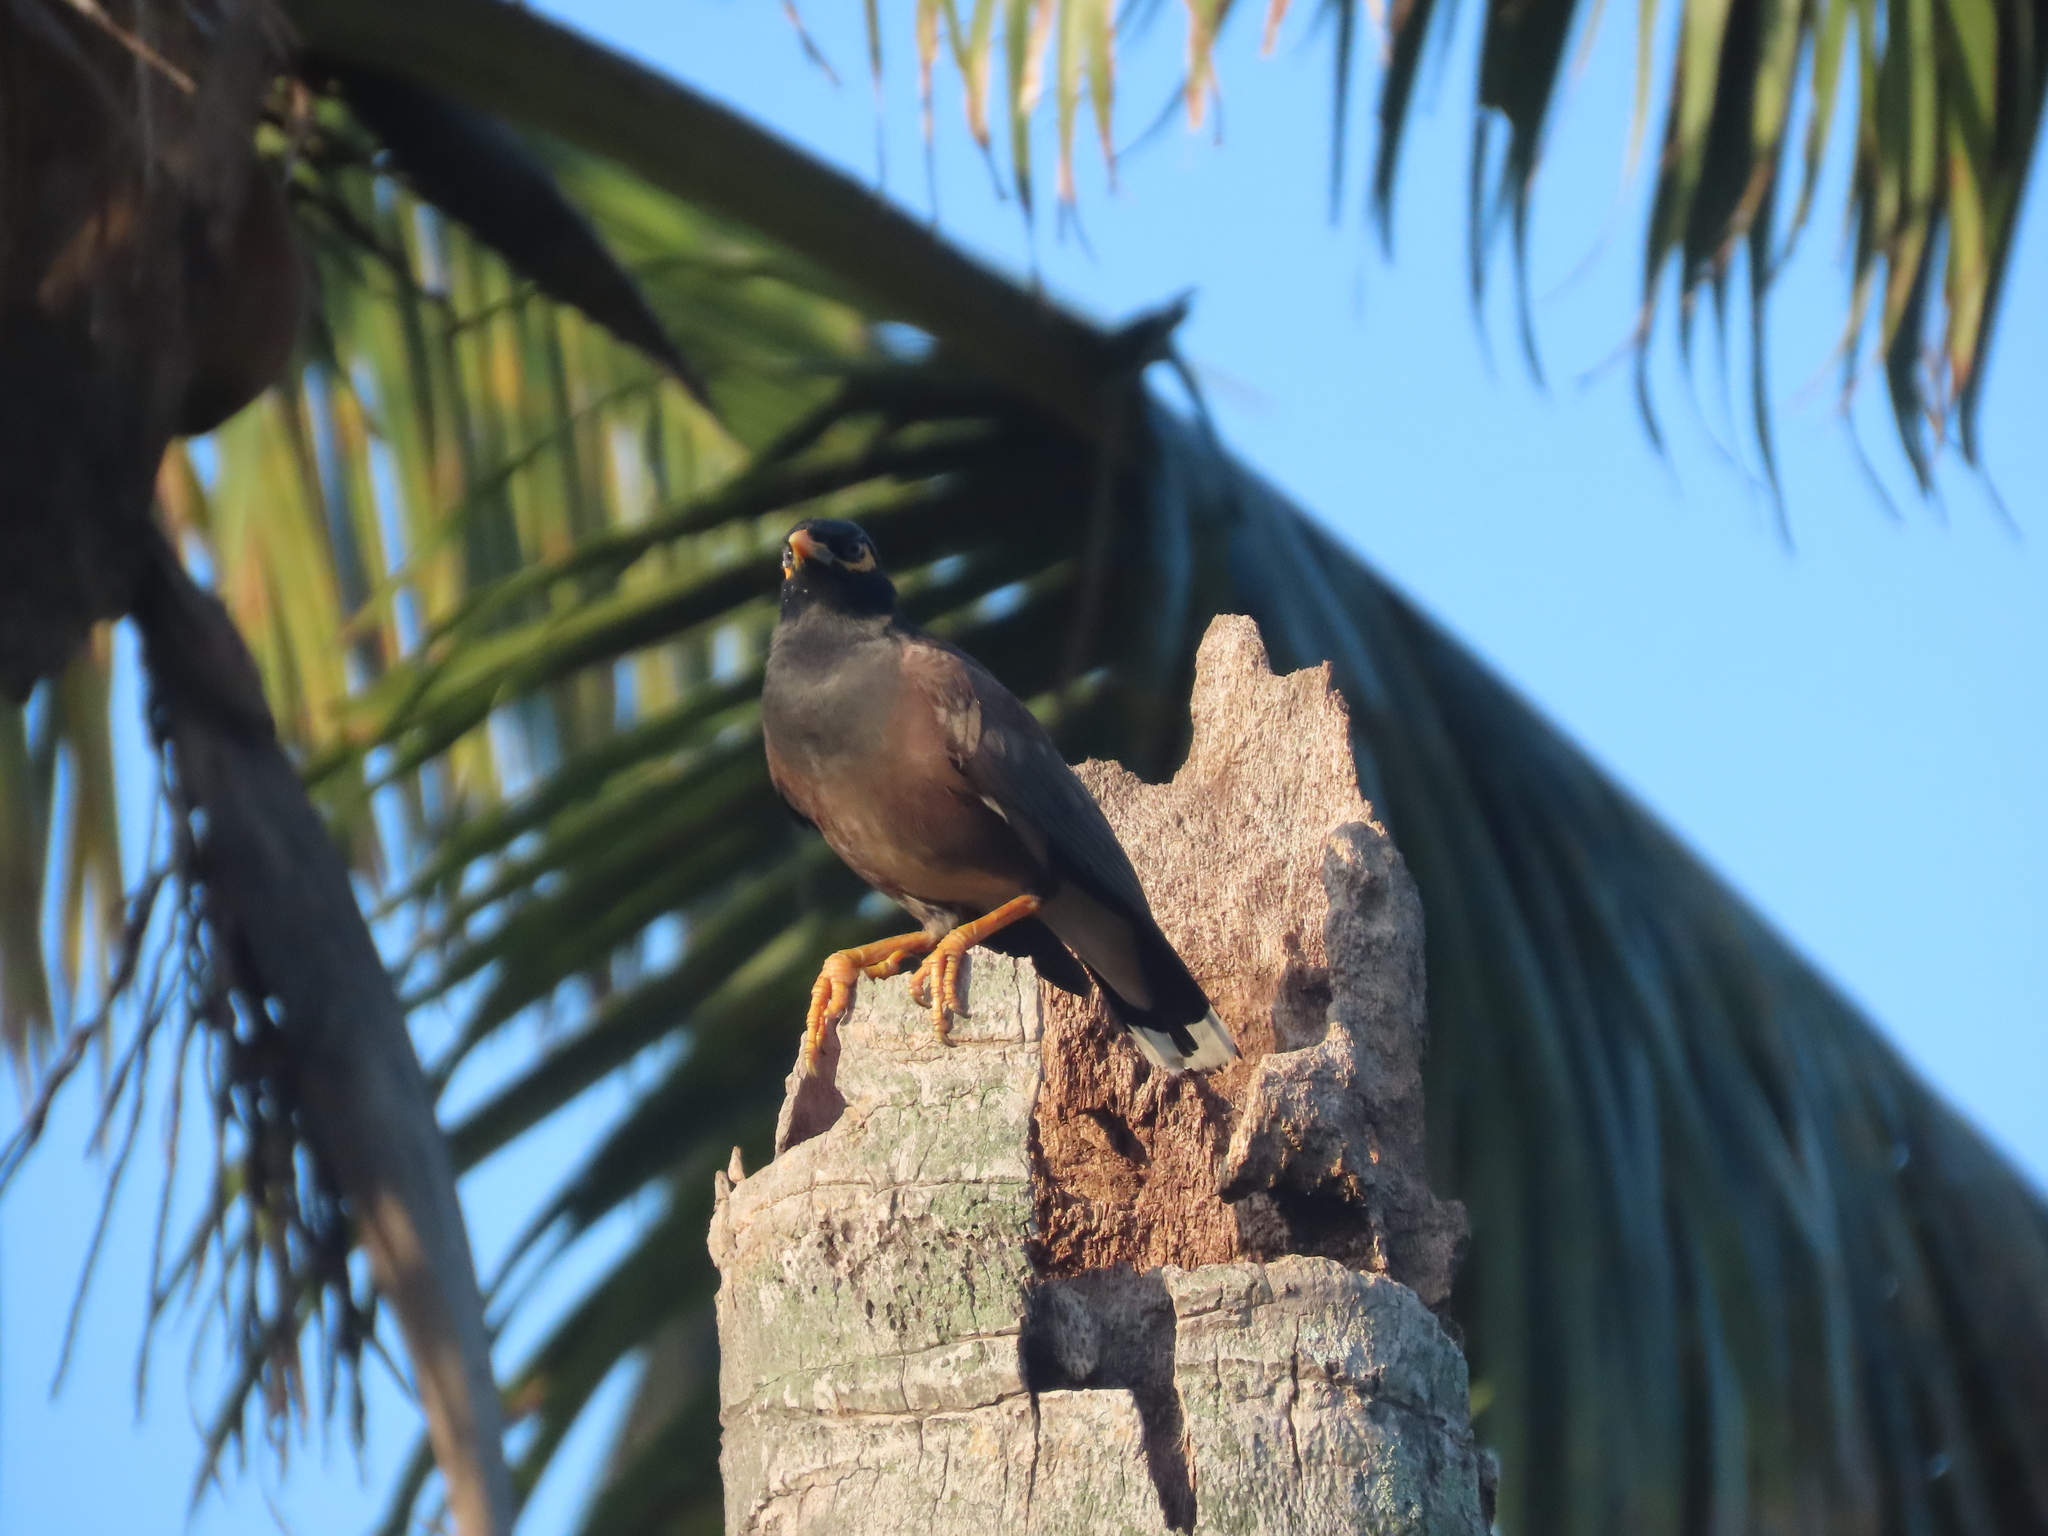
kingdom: Animalia
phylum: Chordata
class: Aves
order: Passeriformes
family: Sturnidae
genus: Acridotheres
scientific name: Acridotheres tristis
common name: Common myna
